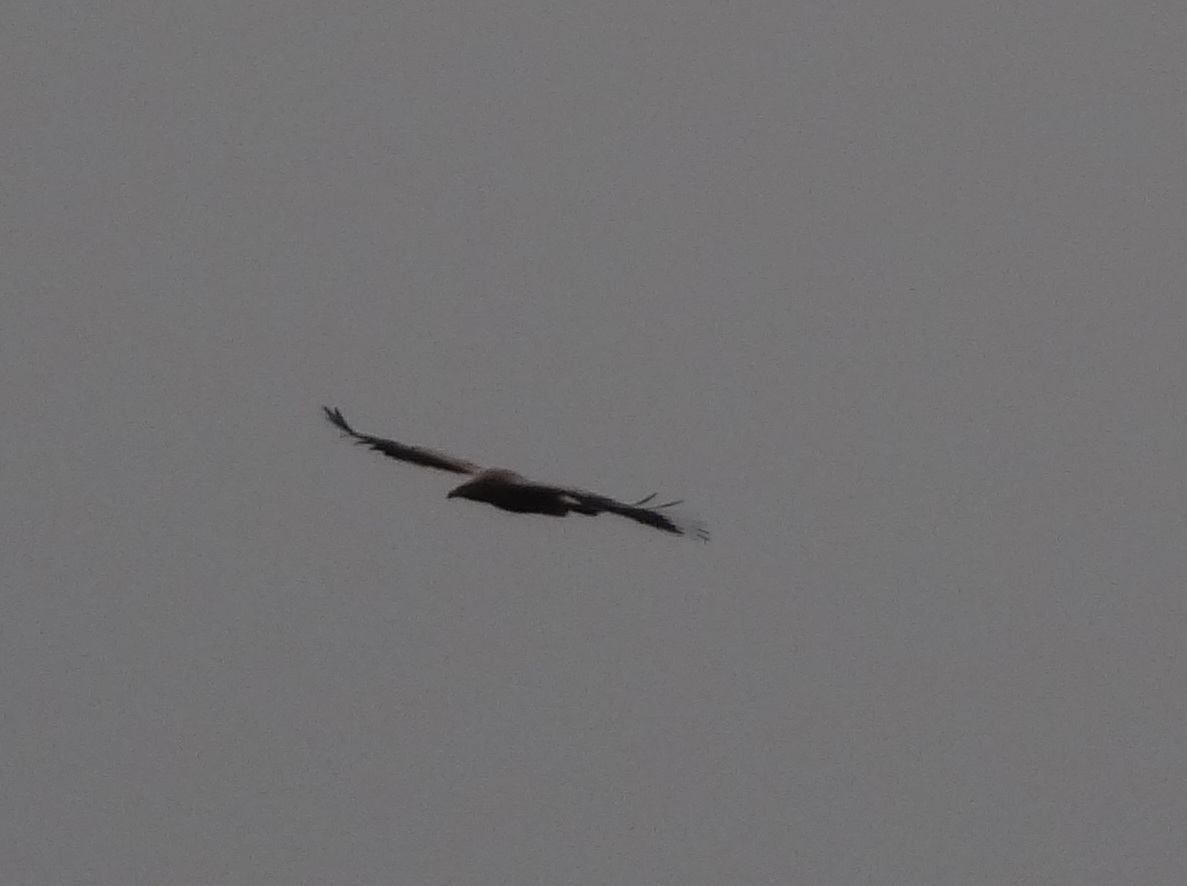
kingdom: Animalia
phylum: Chordata
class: Aves
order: Accipitriformes
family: Accipitridae
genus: Aquila
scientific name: Aquila nipalensis
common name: Steppe eagle
